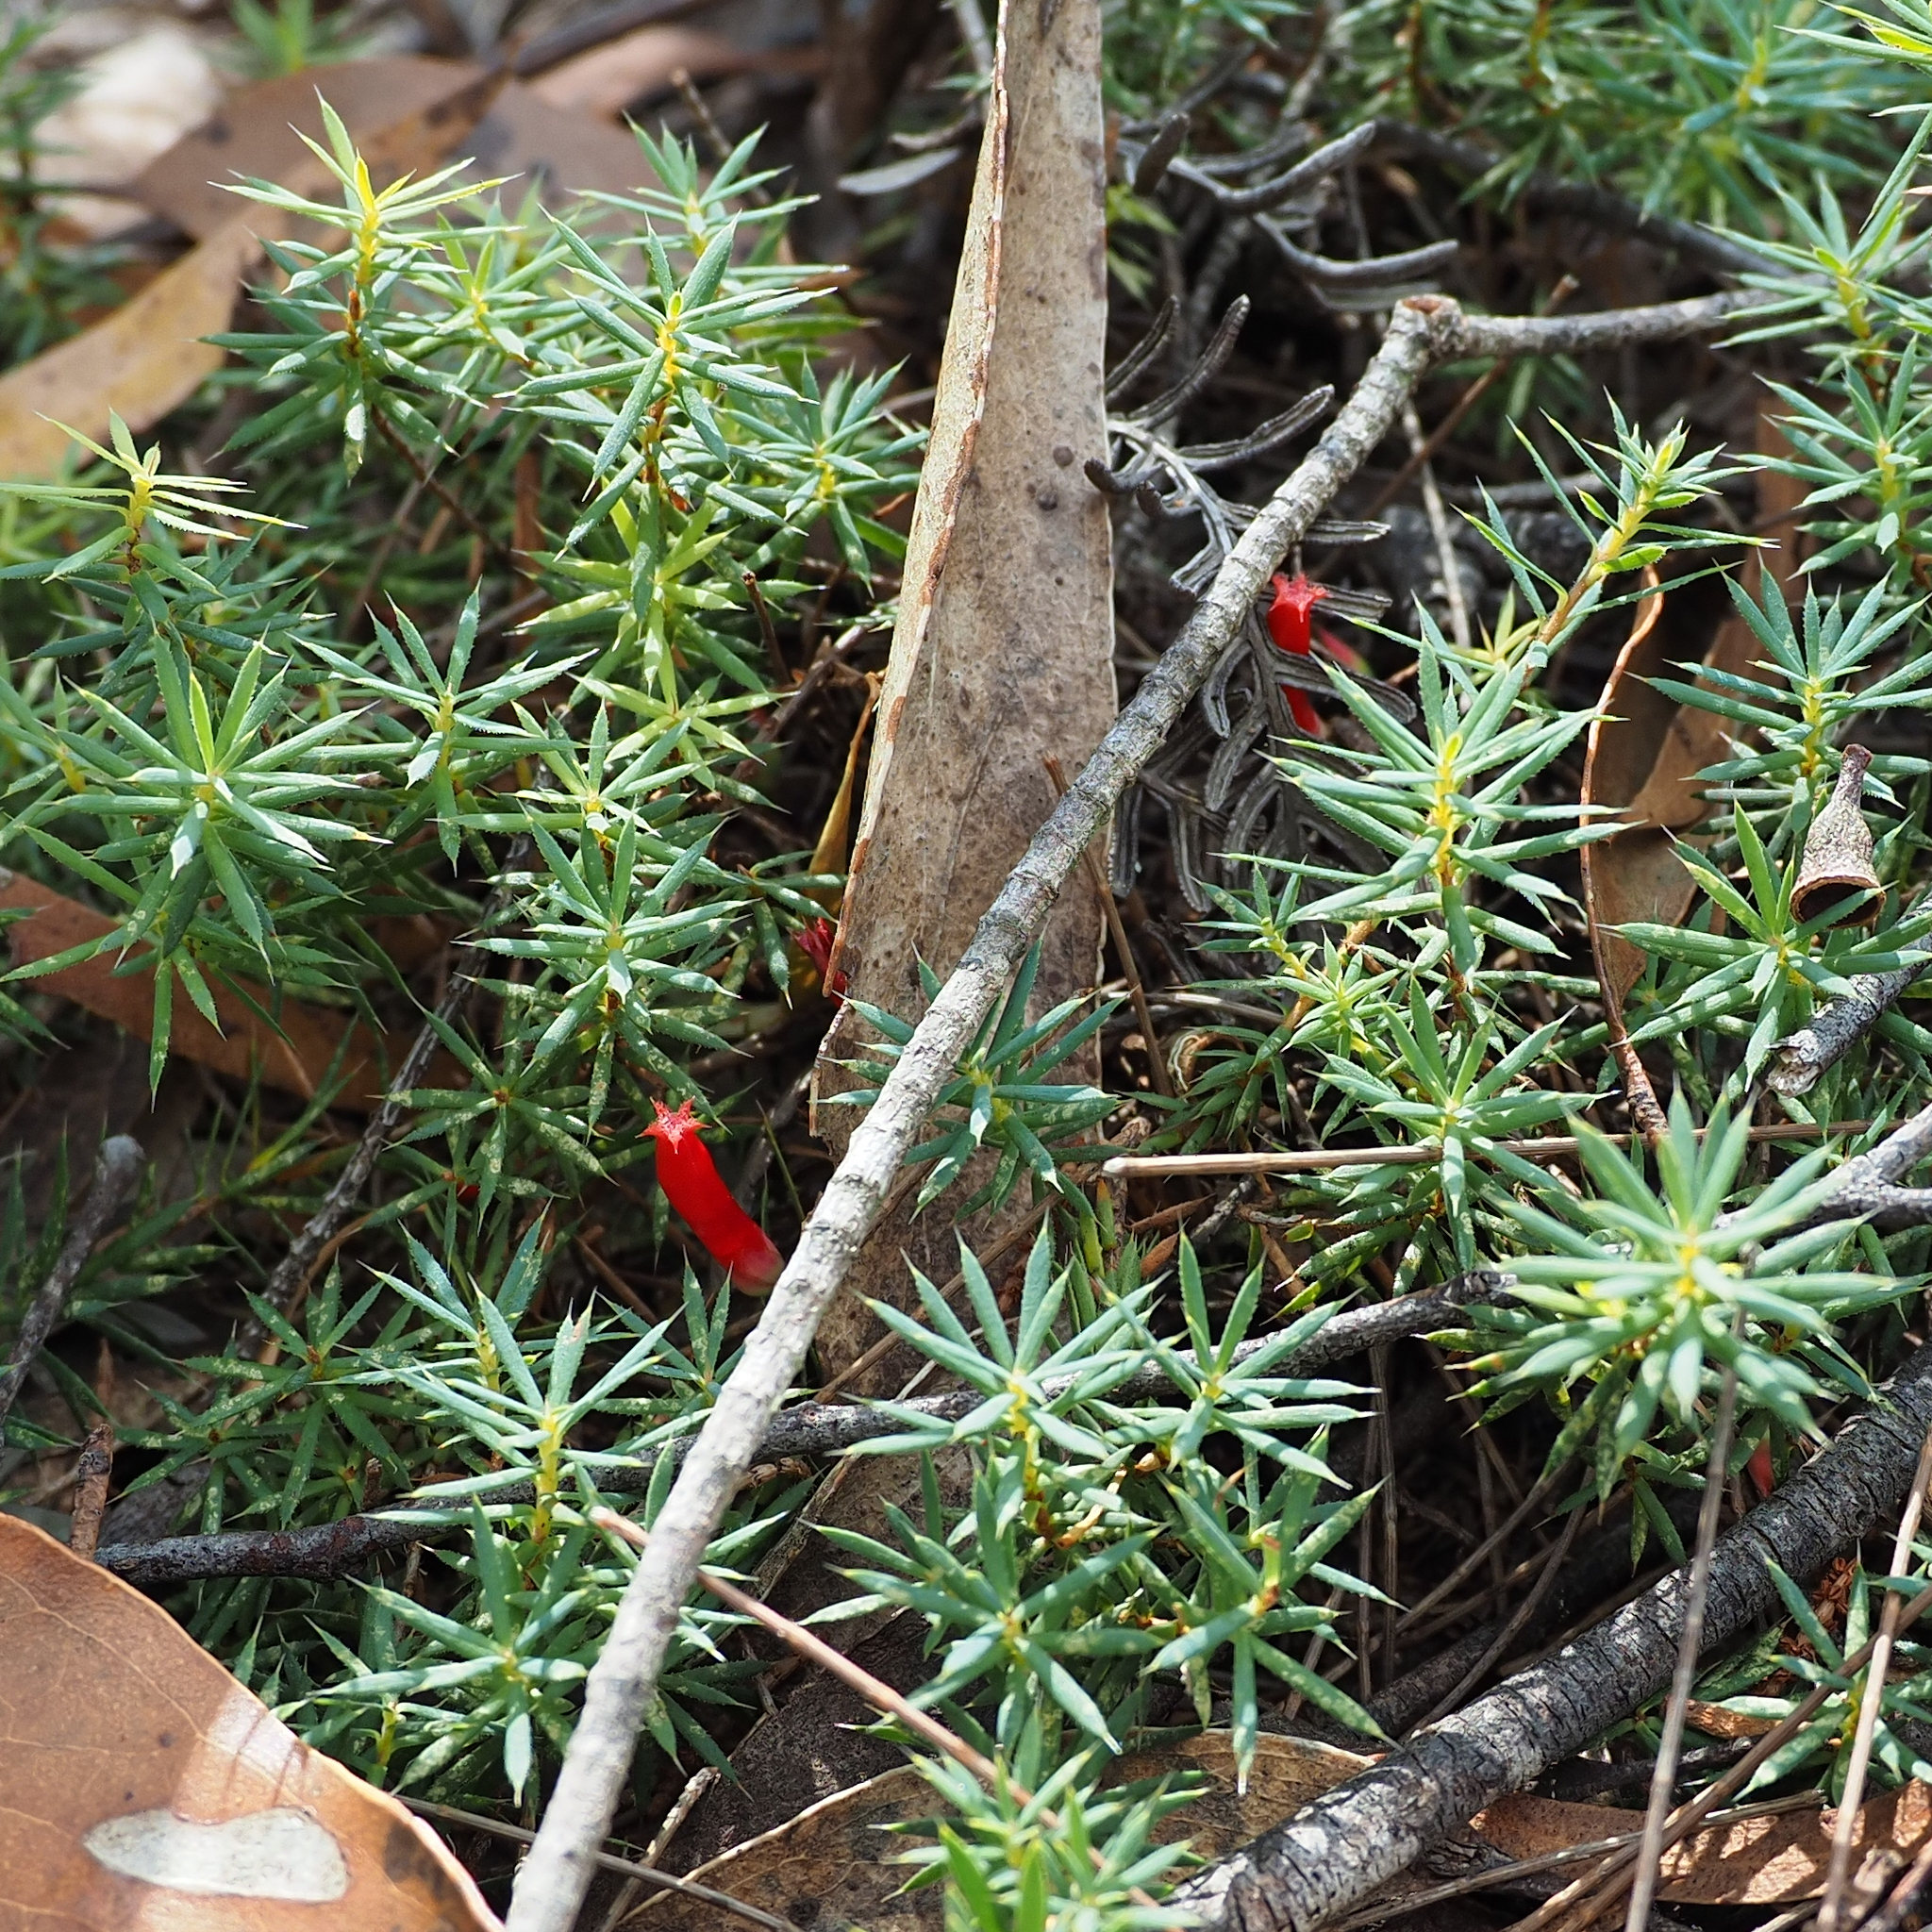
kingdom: Plantae
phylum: Tracheophyta
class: Magnoliopsida
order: Ericales
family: Ericaceae
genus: Styphelia
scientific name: Styphelia humifusa
